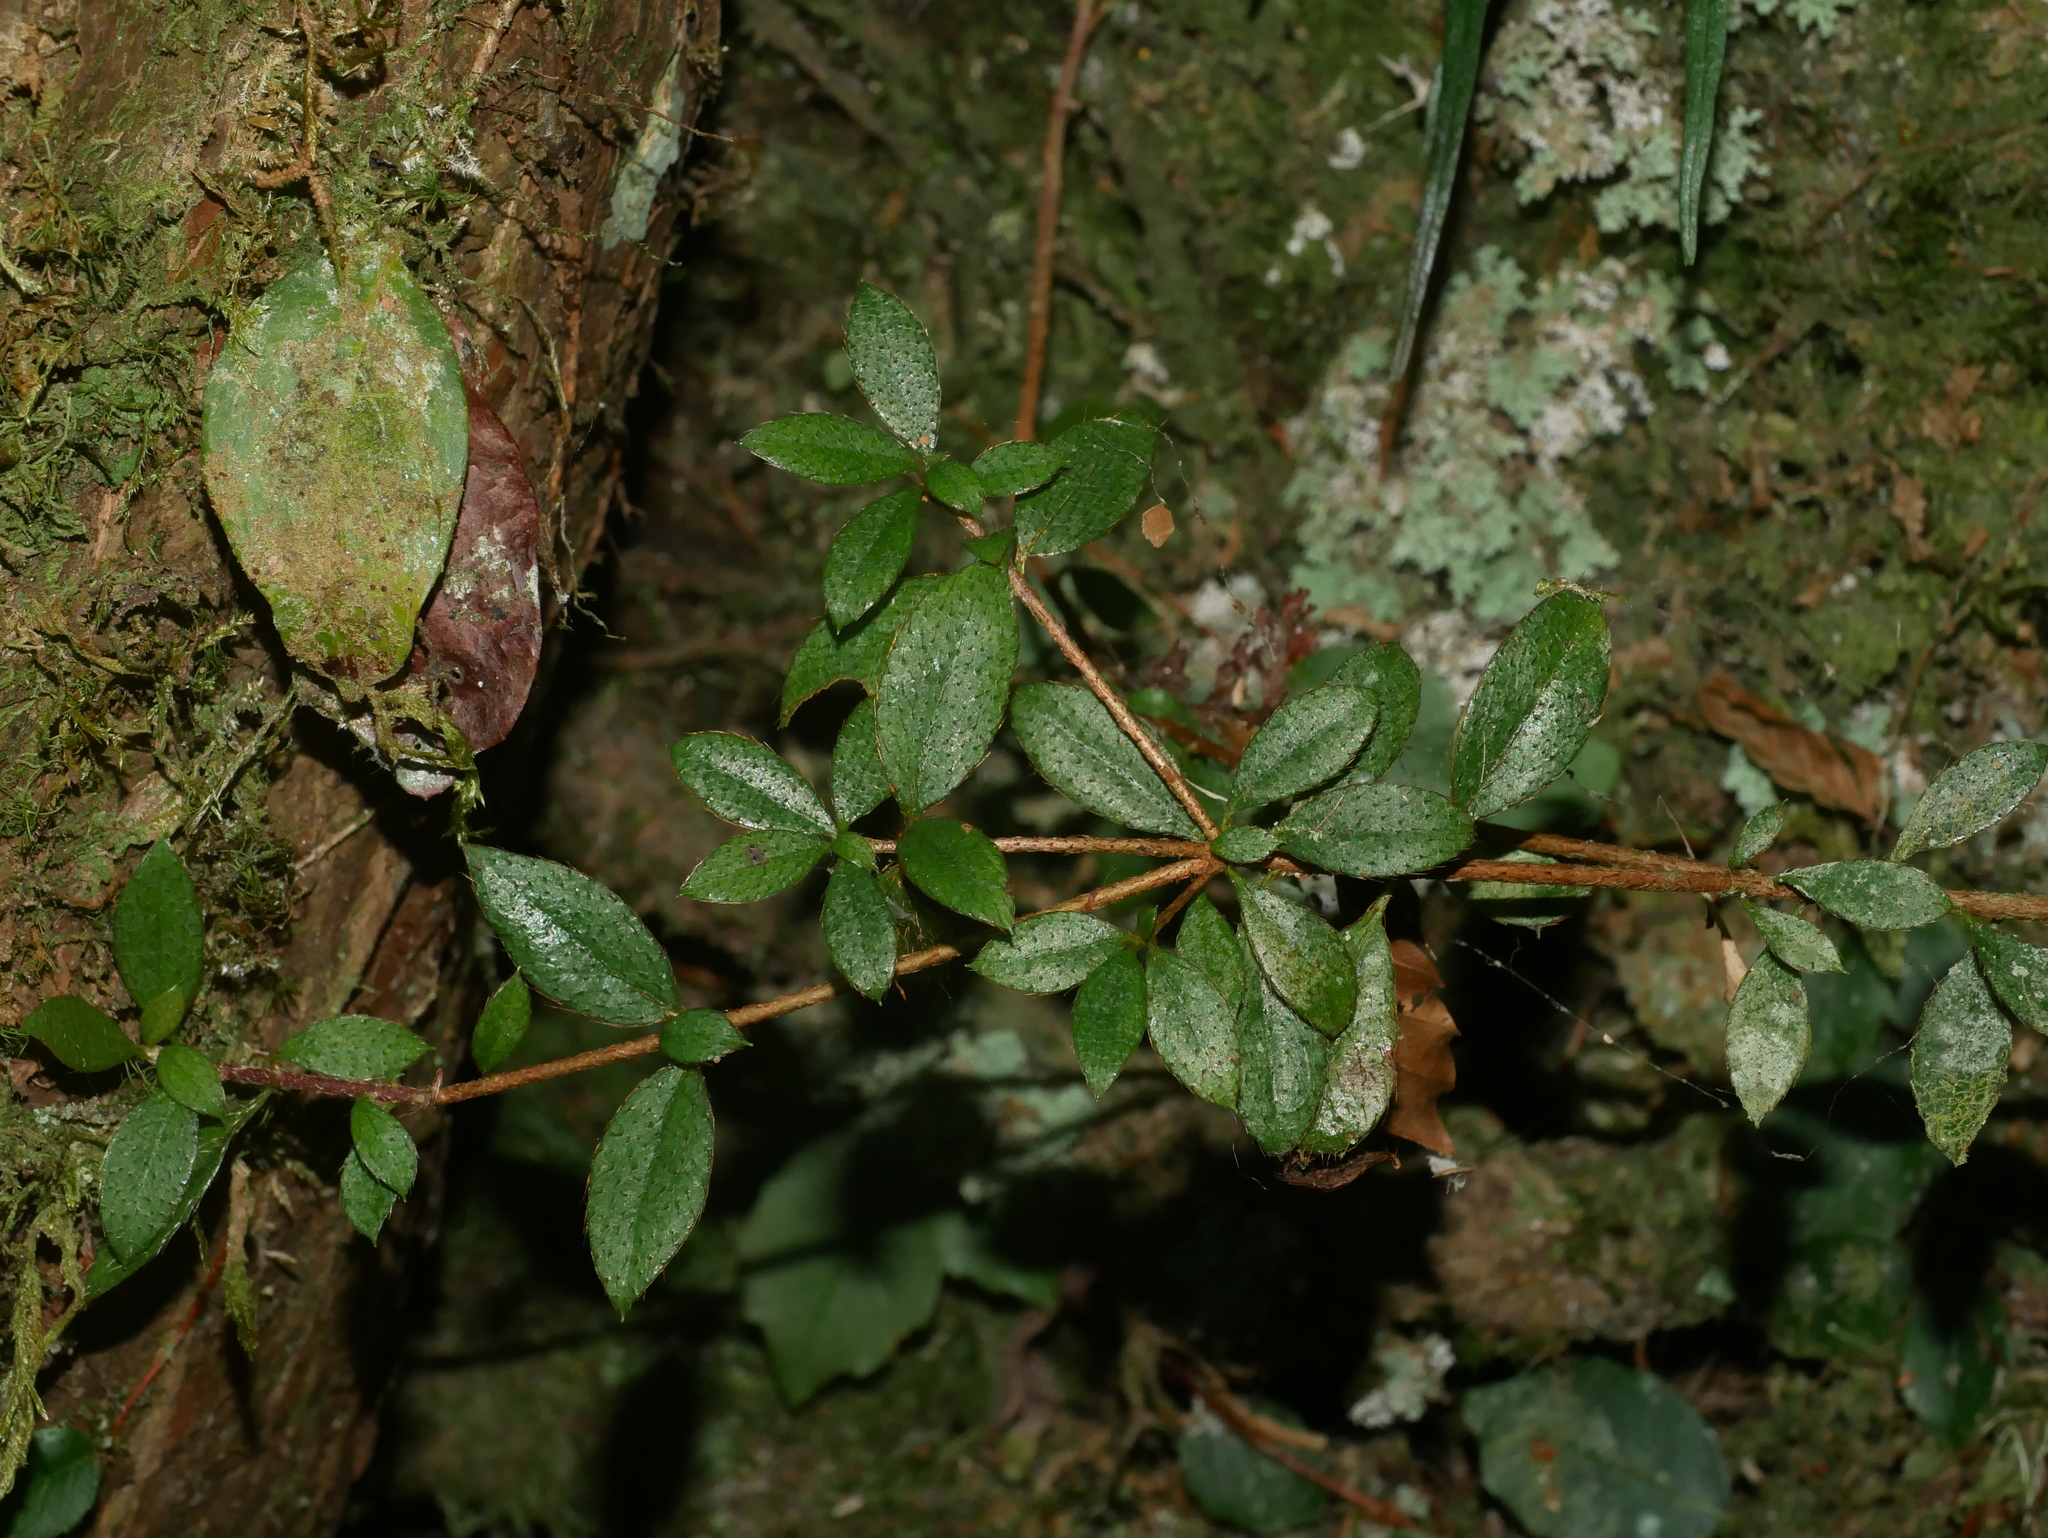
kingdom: Plantae
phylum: Tracheophyta
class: Magnoliopsida
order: Ericales
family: Ericaceae
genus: Rhododendron
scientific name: Rhododendron nakaharae
